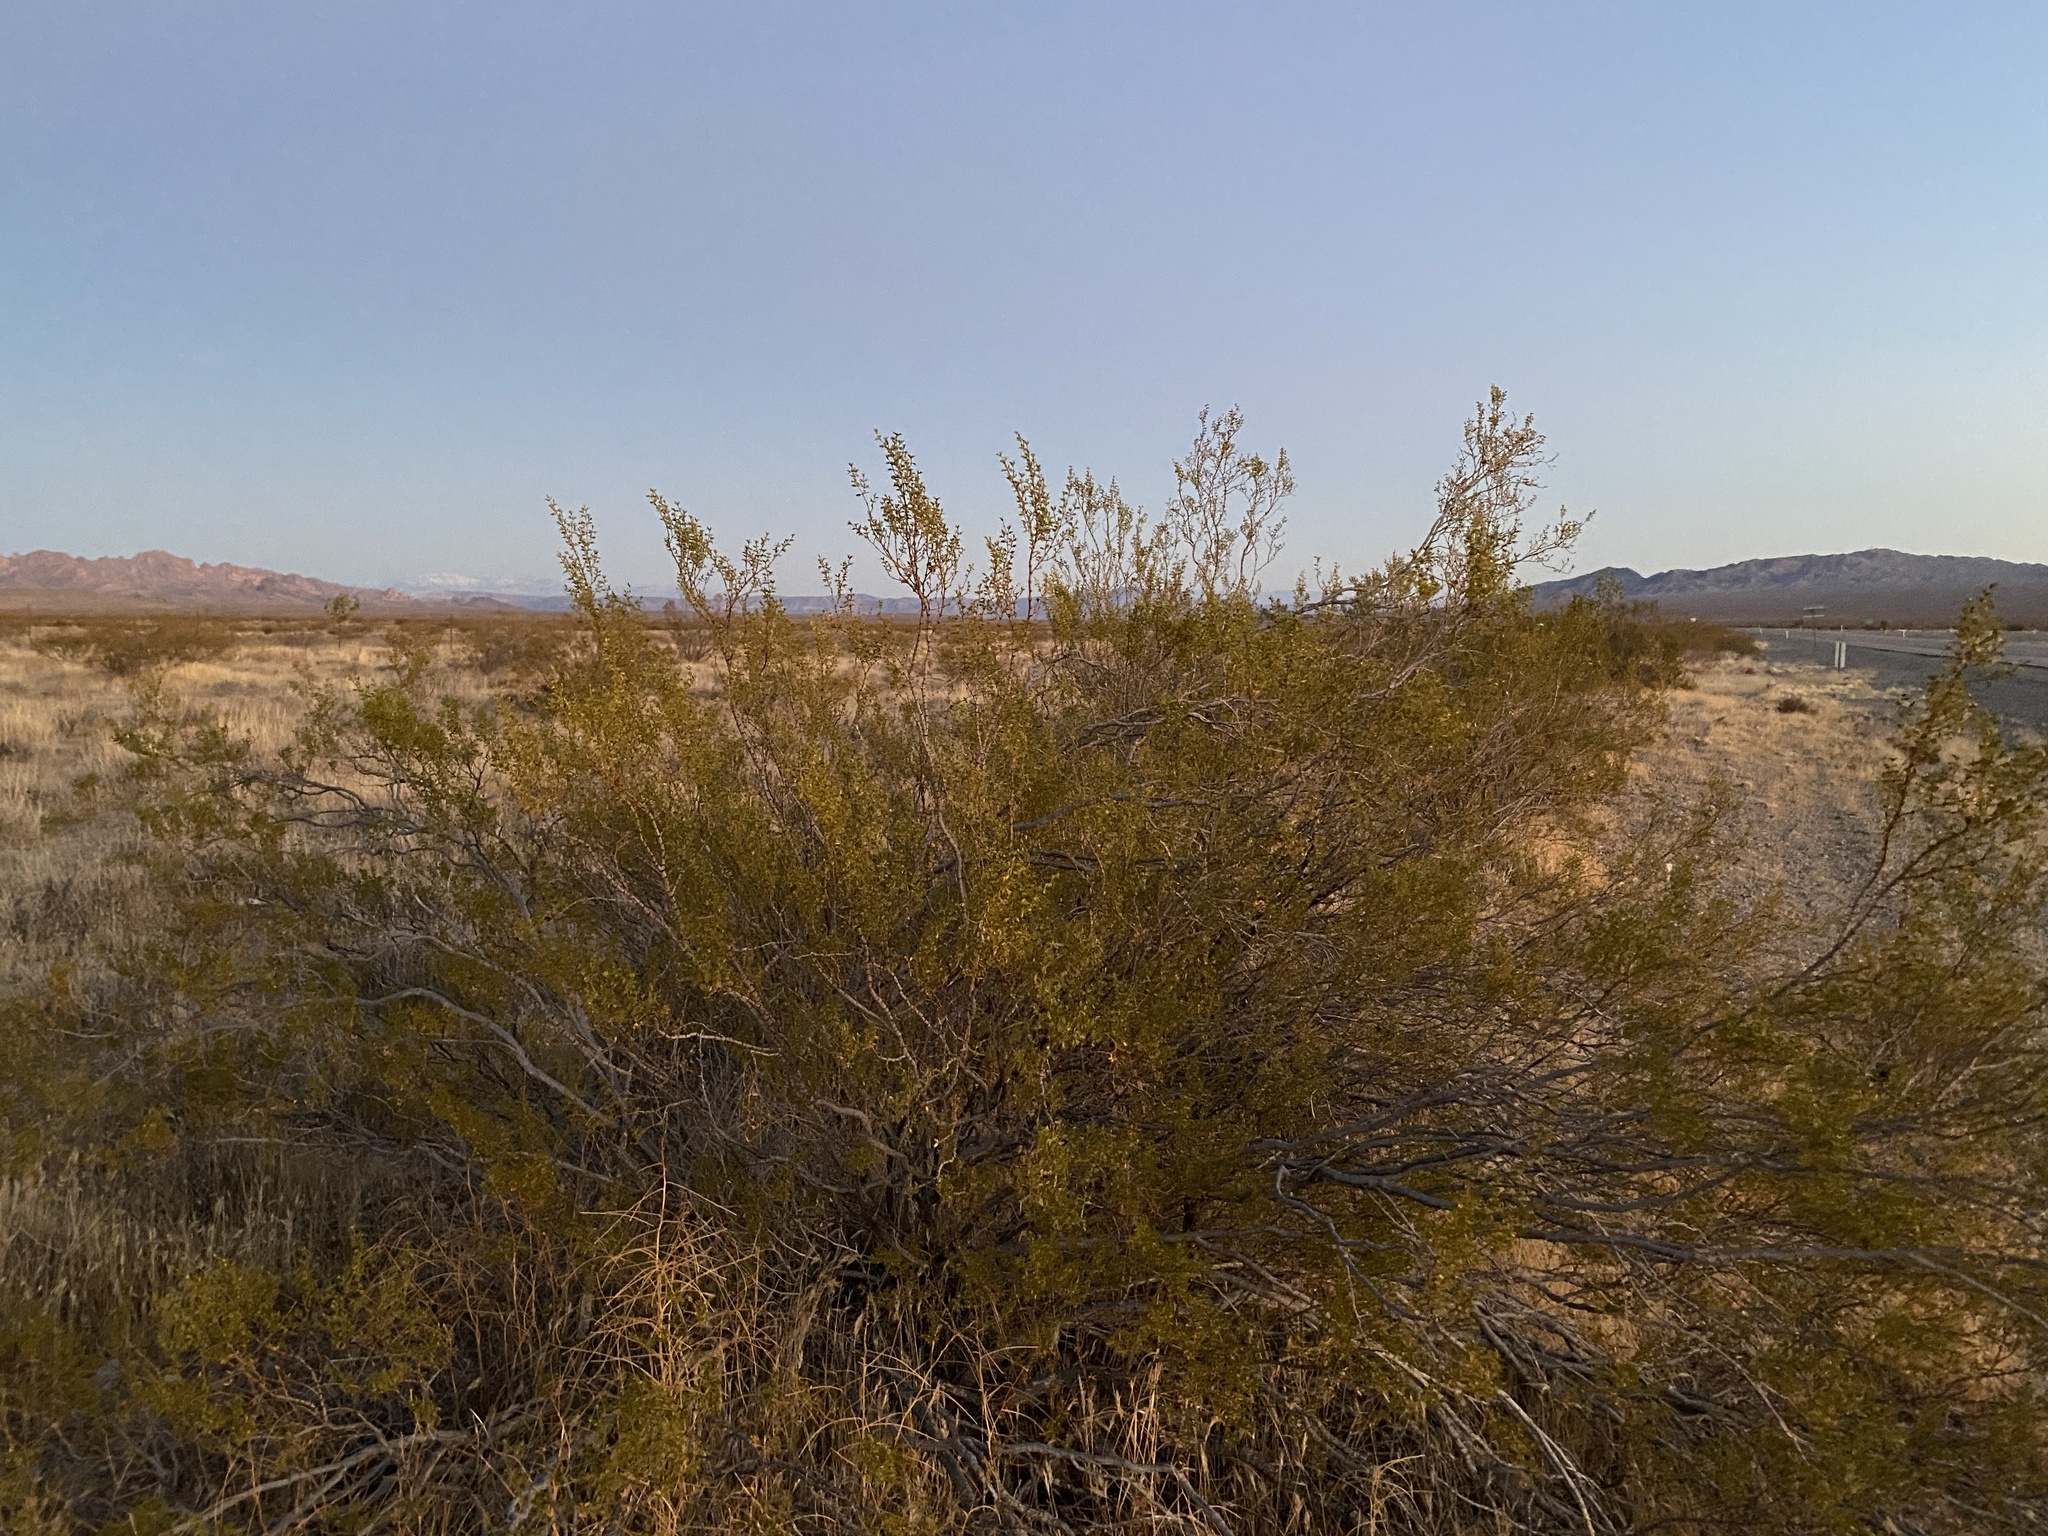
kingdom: Plantae
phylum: Tracheophyta
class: Magnoliopsida
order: Zygophyllales
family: Zygophyllaceae
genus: Larrea
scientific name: Larrea tridentata
